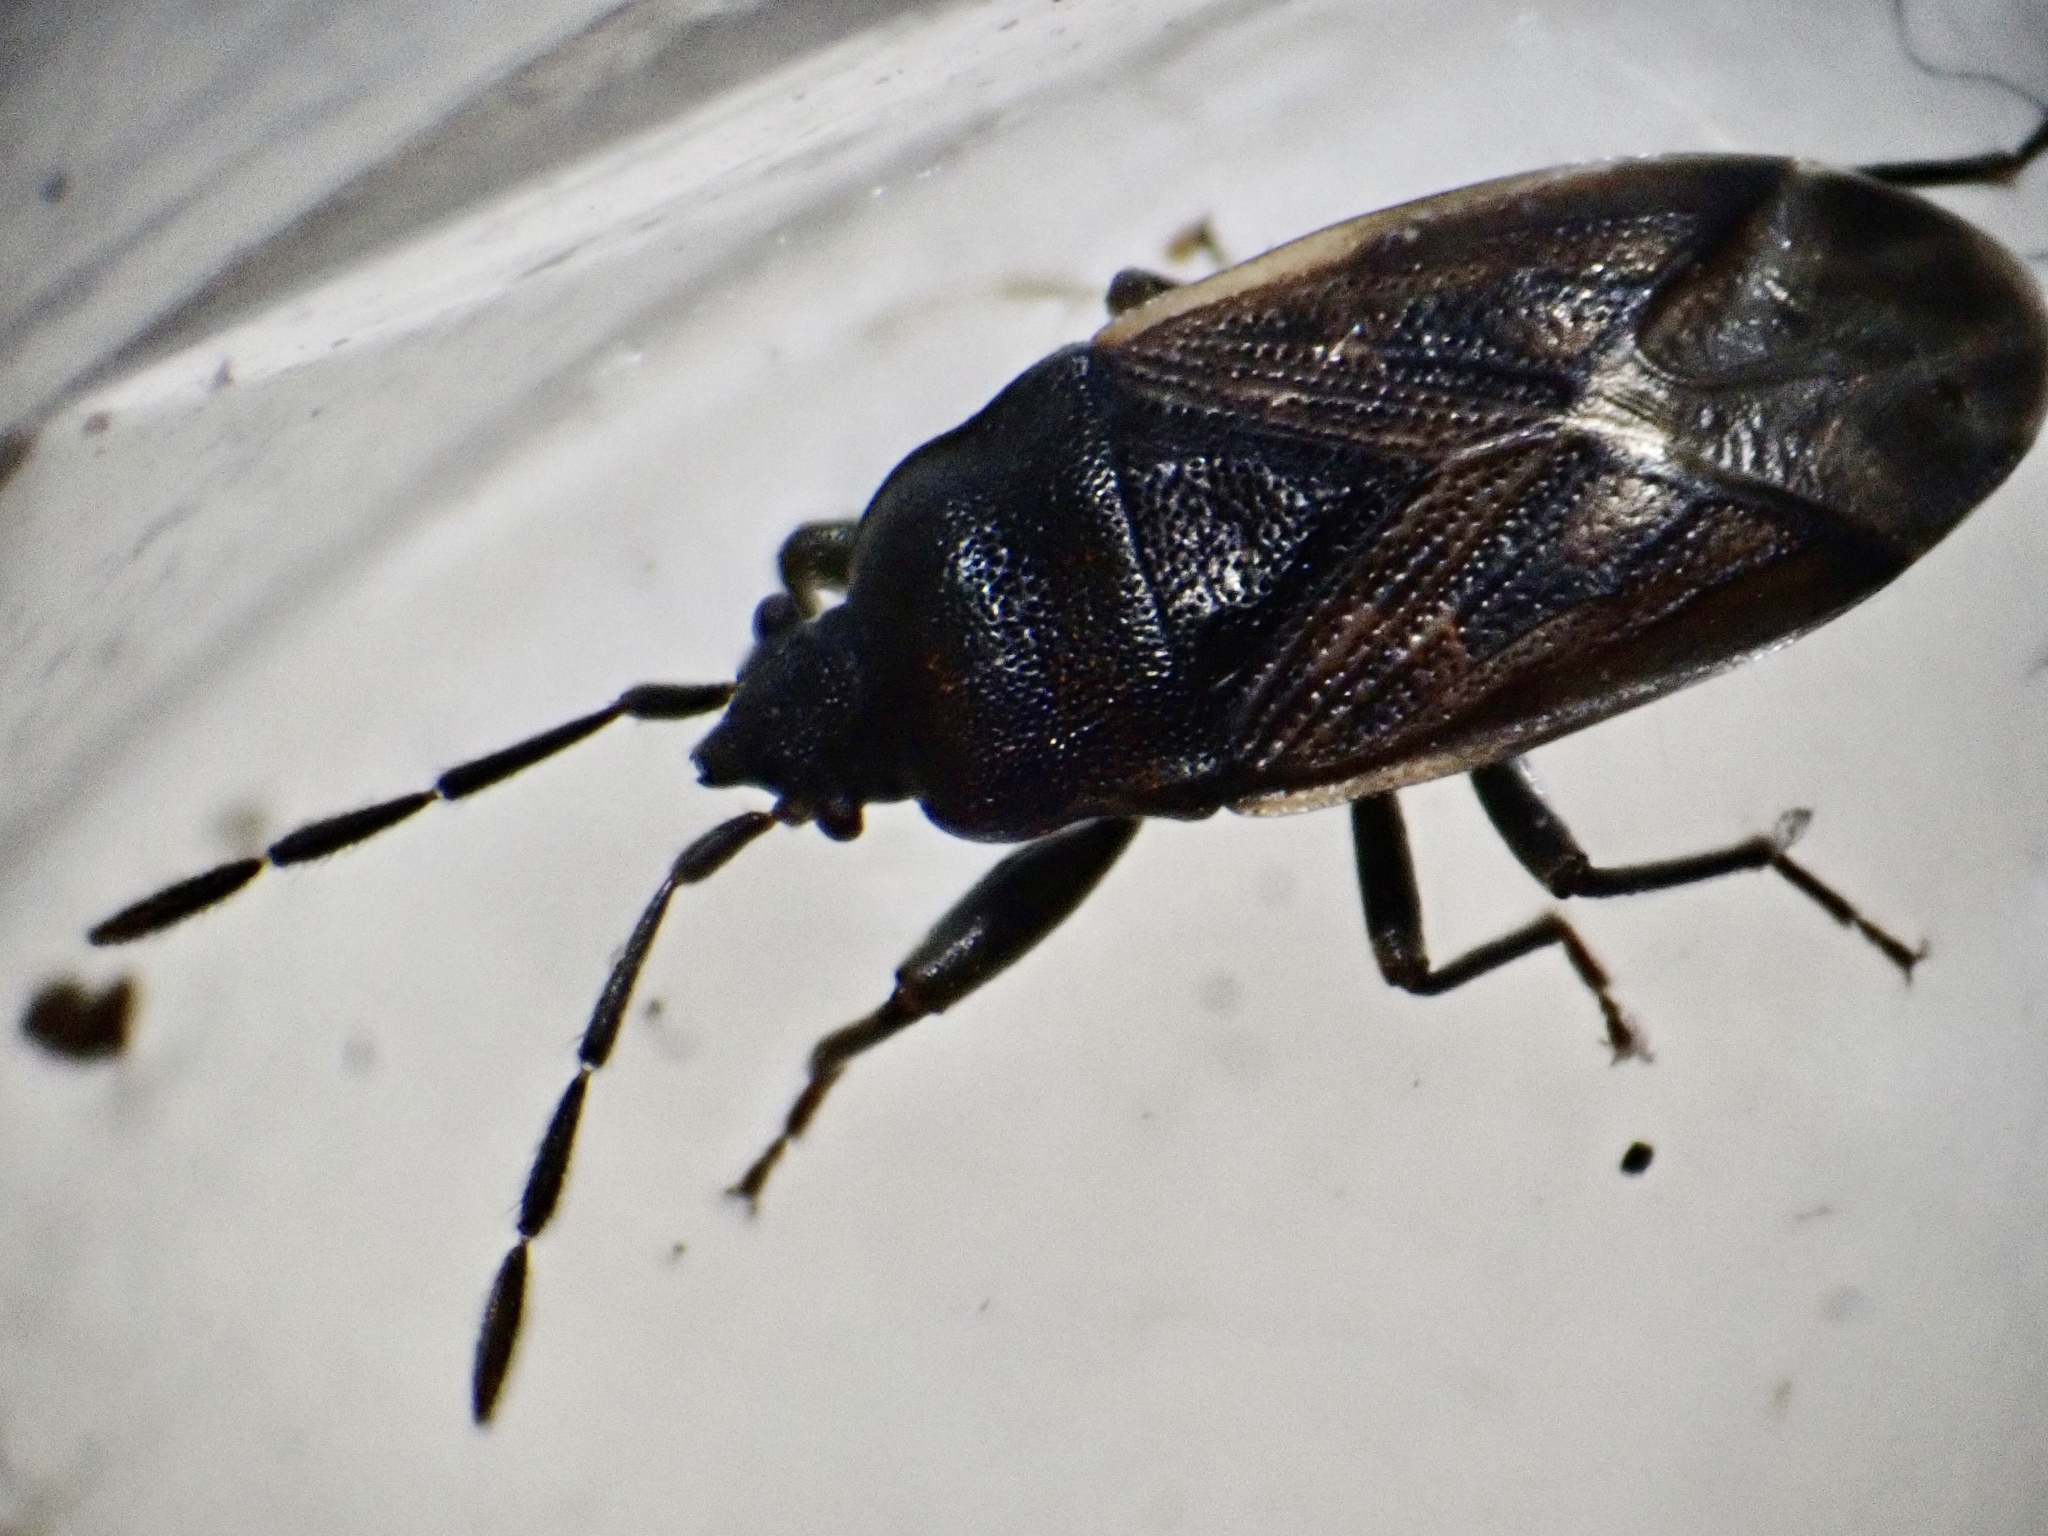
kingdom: Animalia
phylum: Arthropoda
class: Insecta
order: Hemiptera
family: Rhyparochromidae
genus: Drymus
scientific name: Drymus sylvaticus
